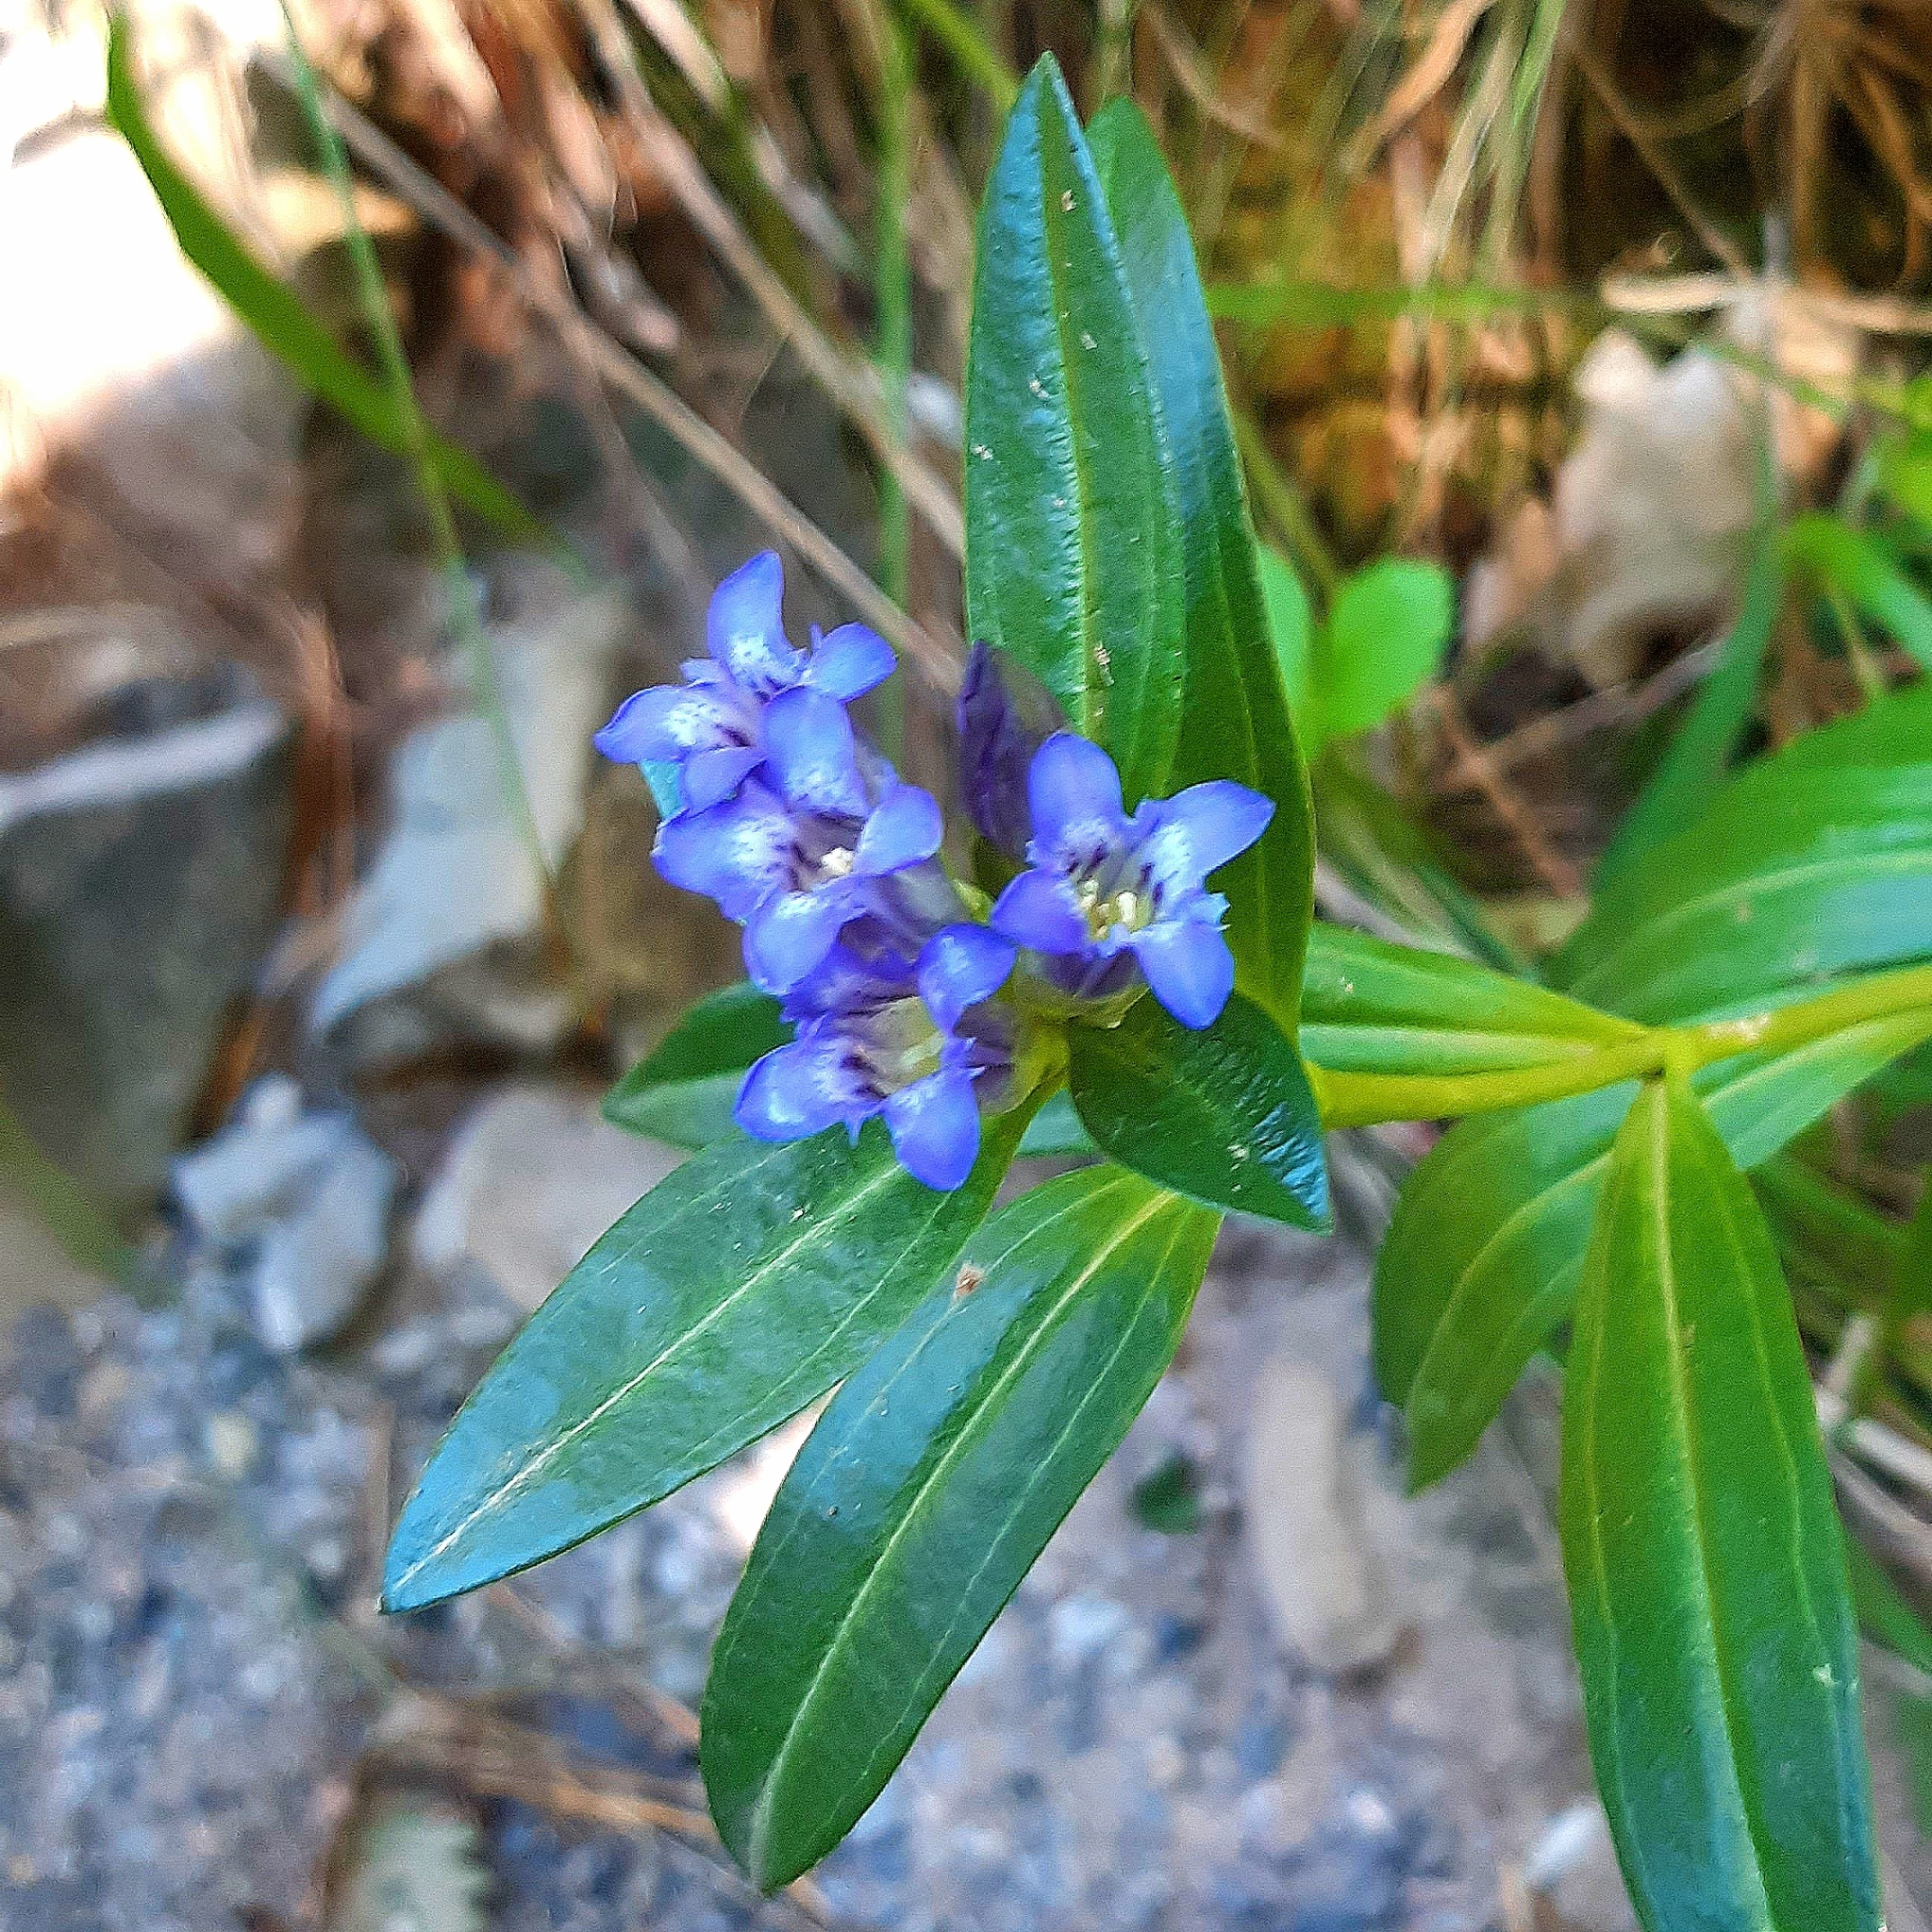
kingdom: Plantae
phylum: Tracheophyta
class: Magnoliopsida
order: Gentianales
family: Gentianaceae
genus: Gentiana
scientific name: Gentiana cruciata
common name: Cross gentian
